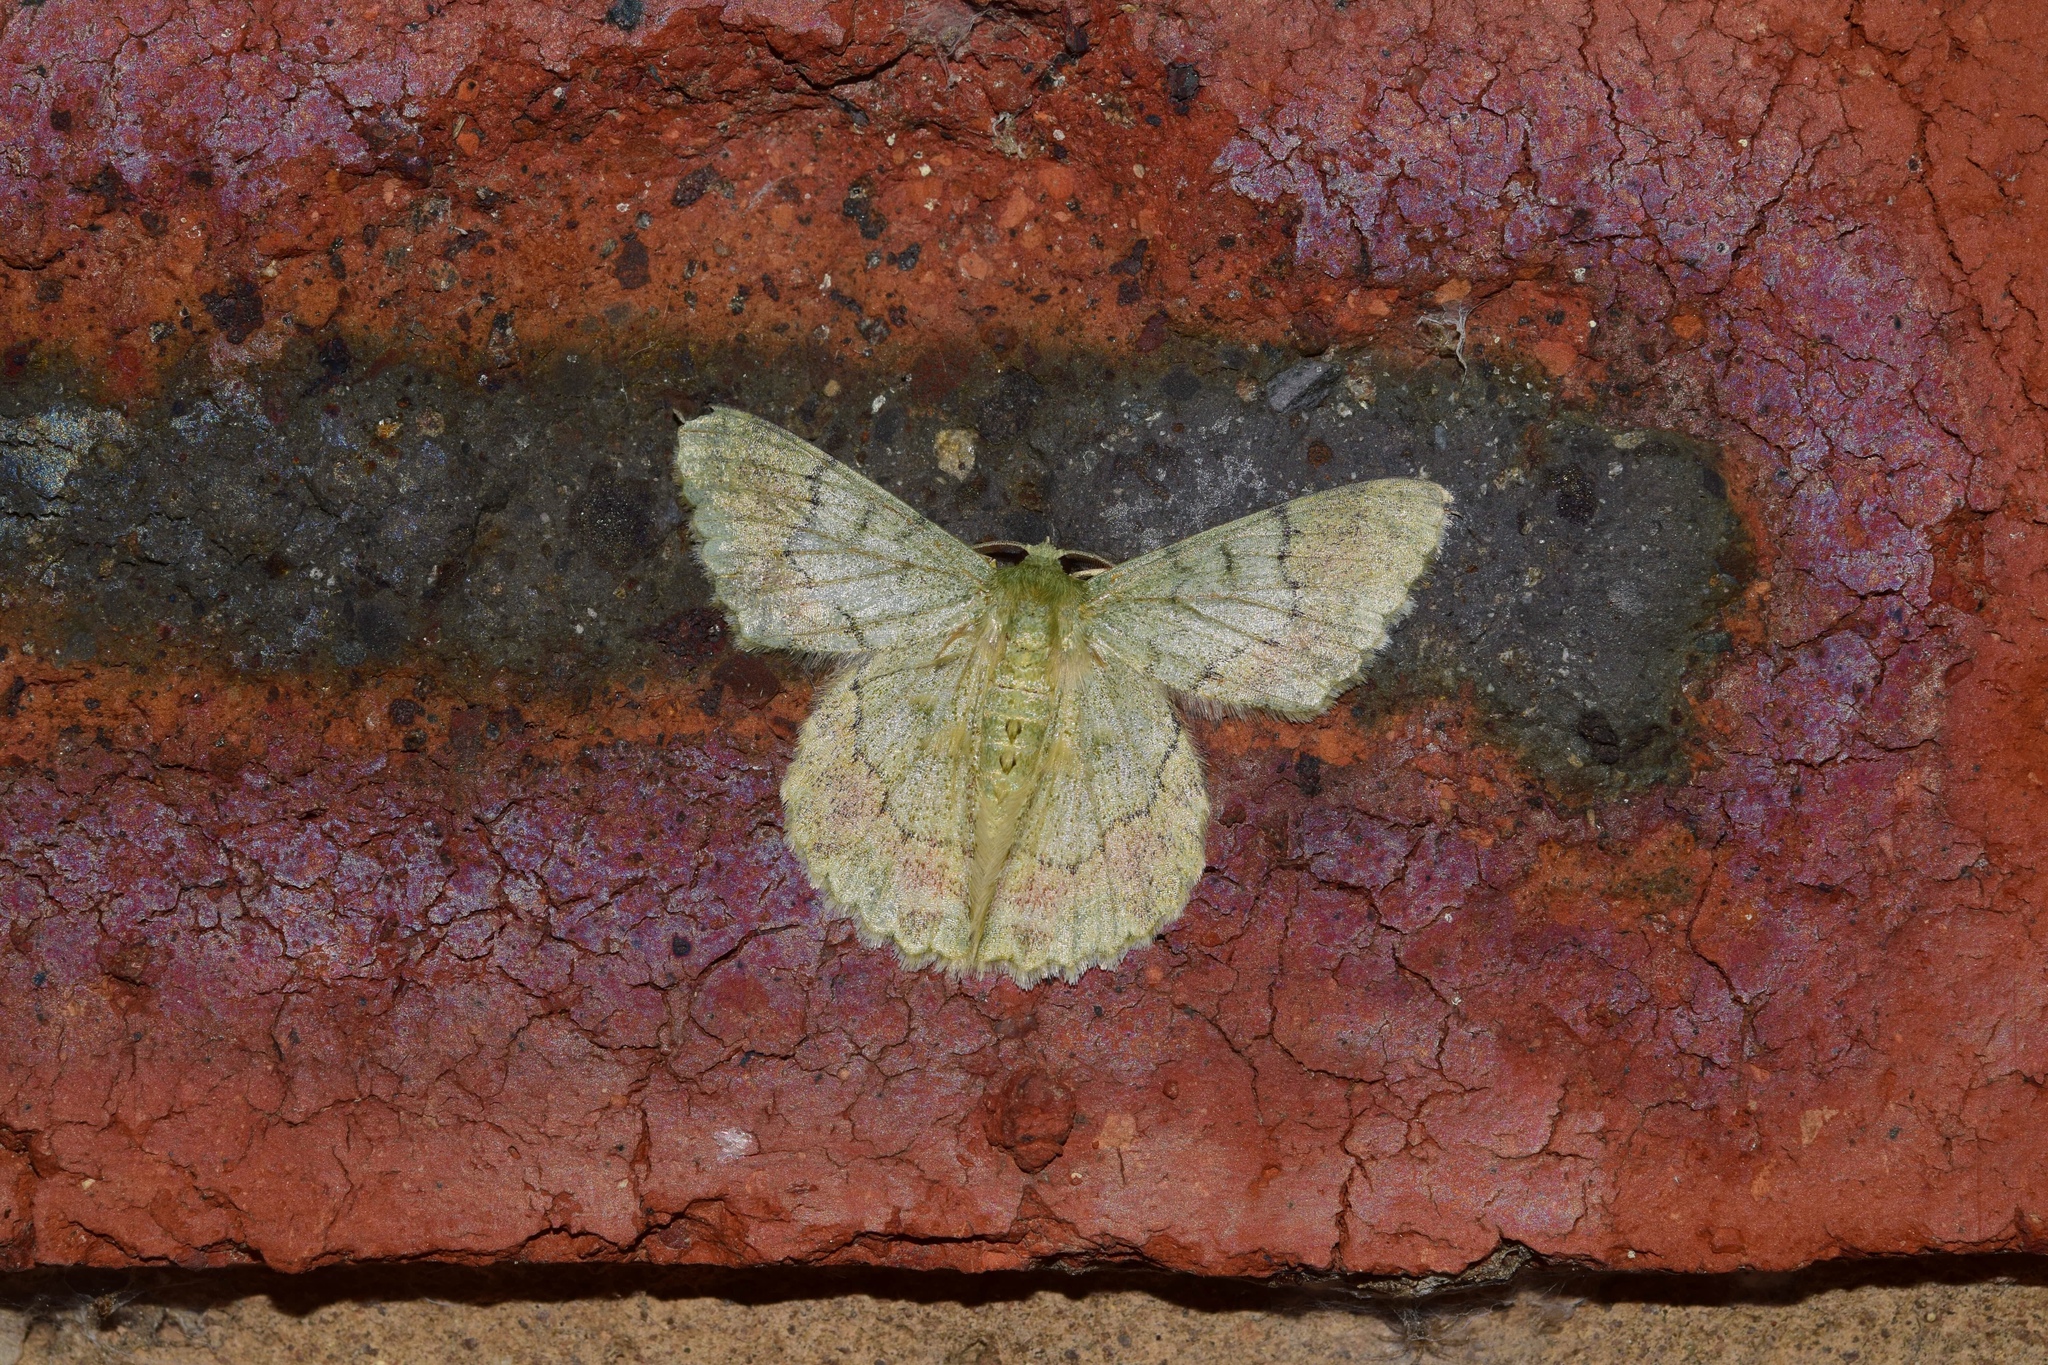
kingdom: Animalia
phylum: Arthropoda
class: Insecta
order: Lepidoptera
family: Geometridae
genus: Pingasa
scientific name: Pingasa rhadamaria
